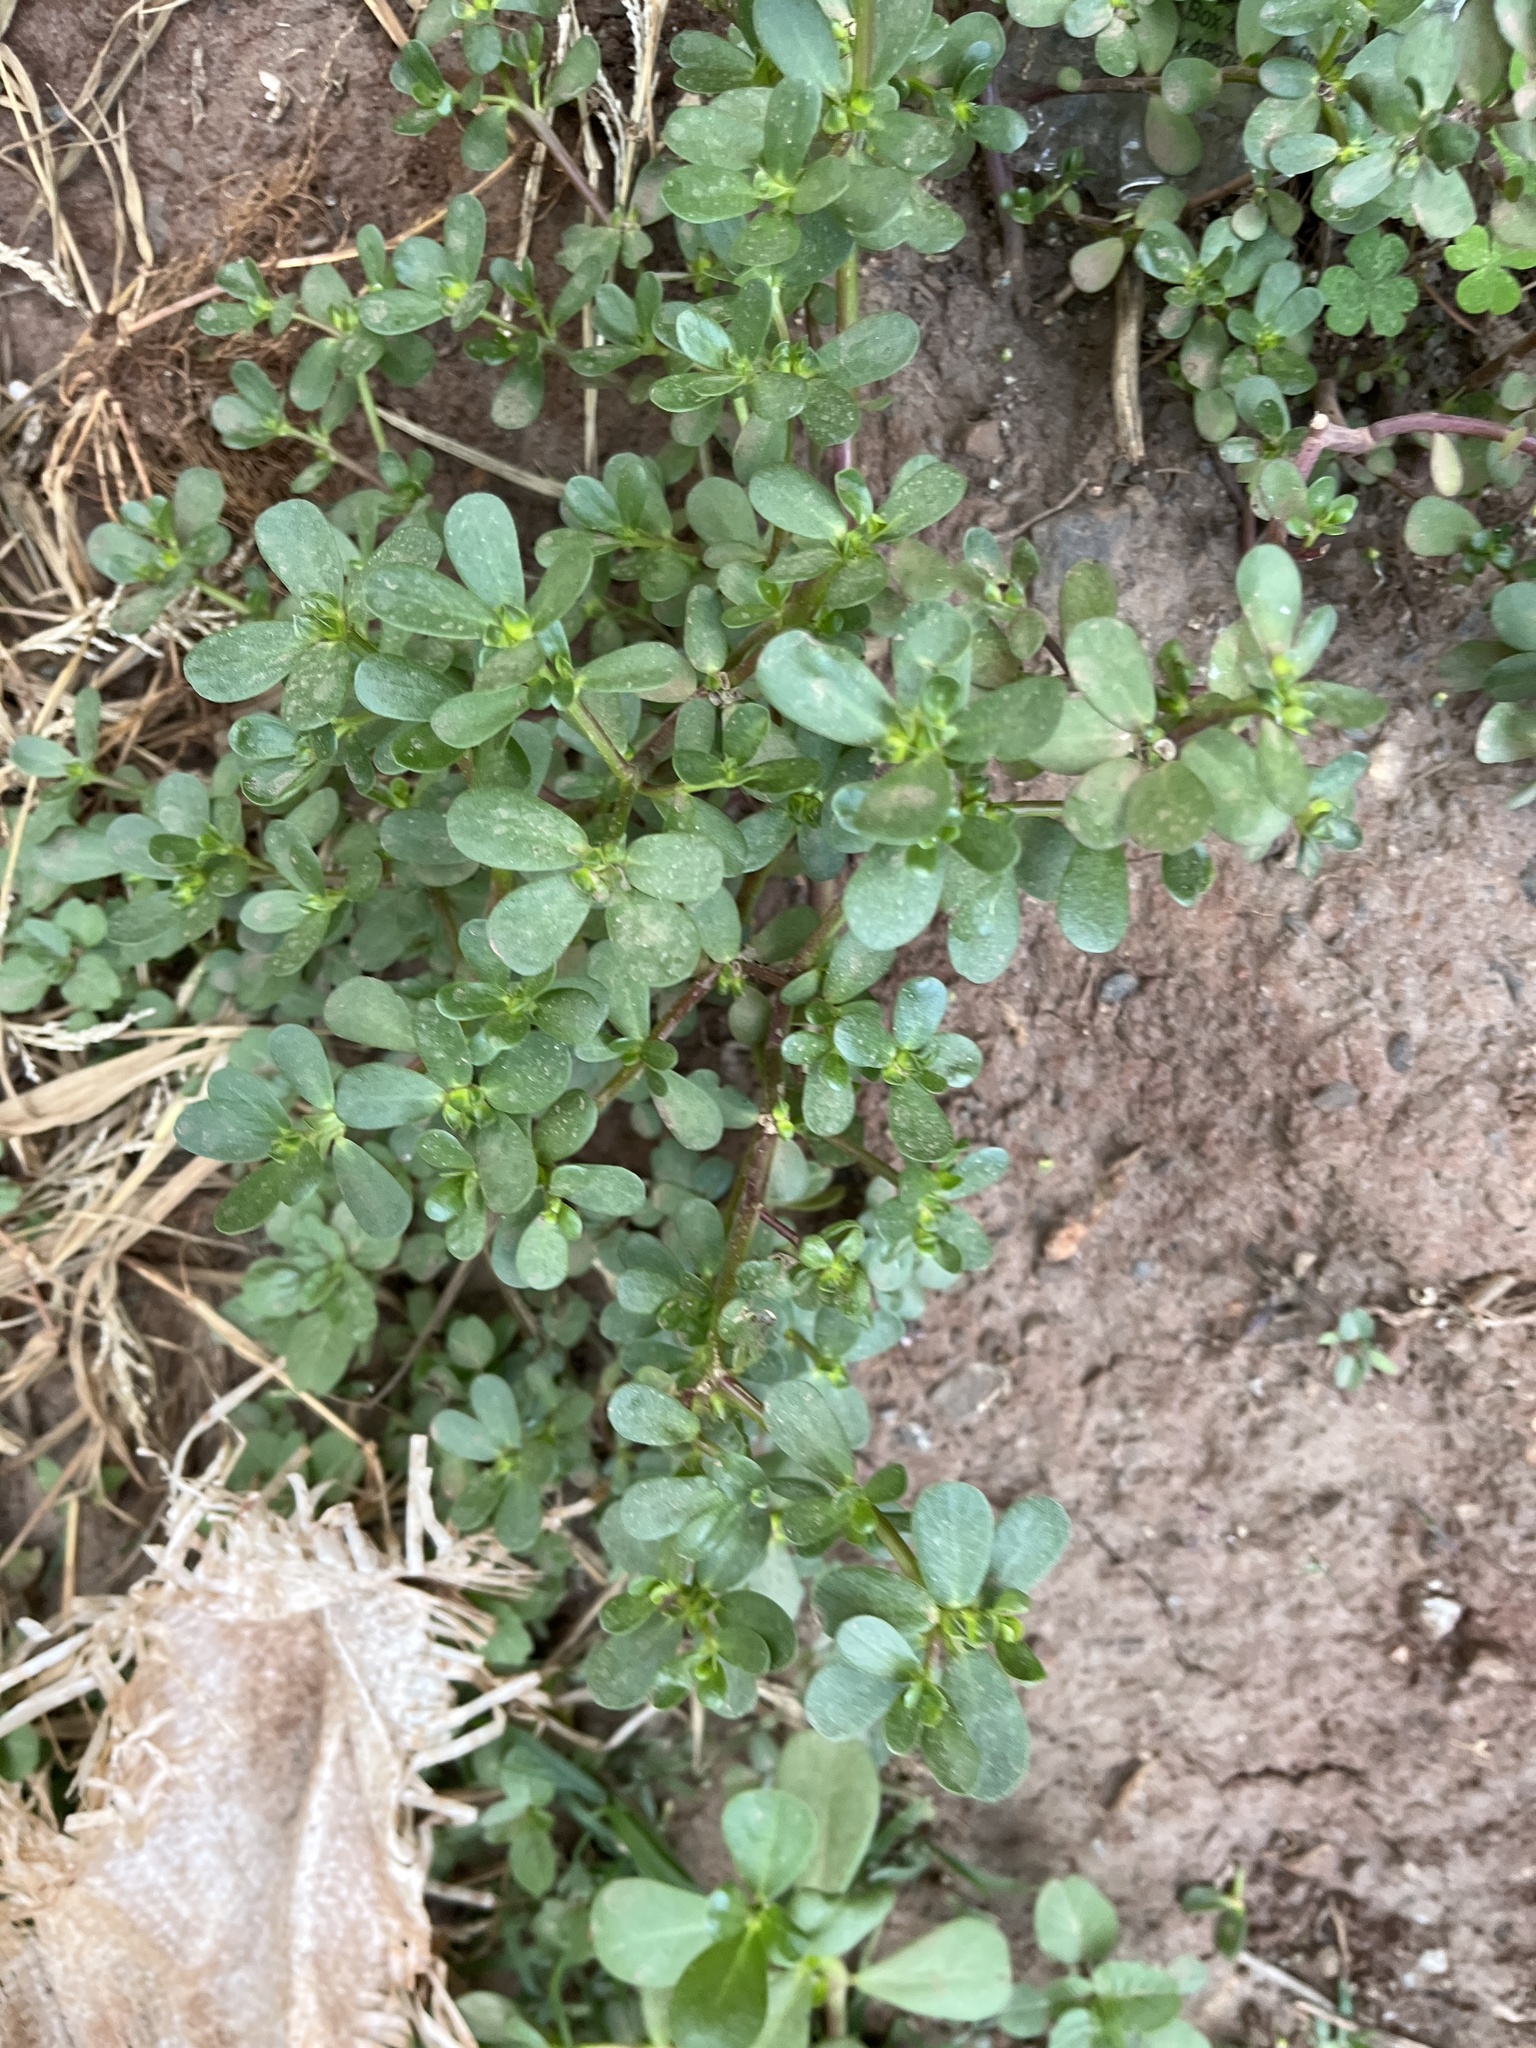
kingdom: Plantae
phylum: Tracheophyta
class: Magnoliopsida
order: Caryophyllales
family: Portulacaceae
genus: Portulaca
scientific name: Portulaca oleracea
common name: Common purslane
